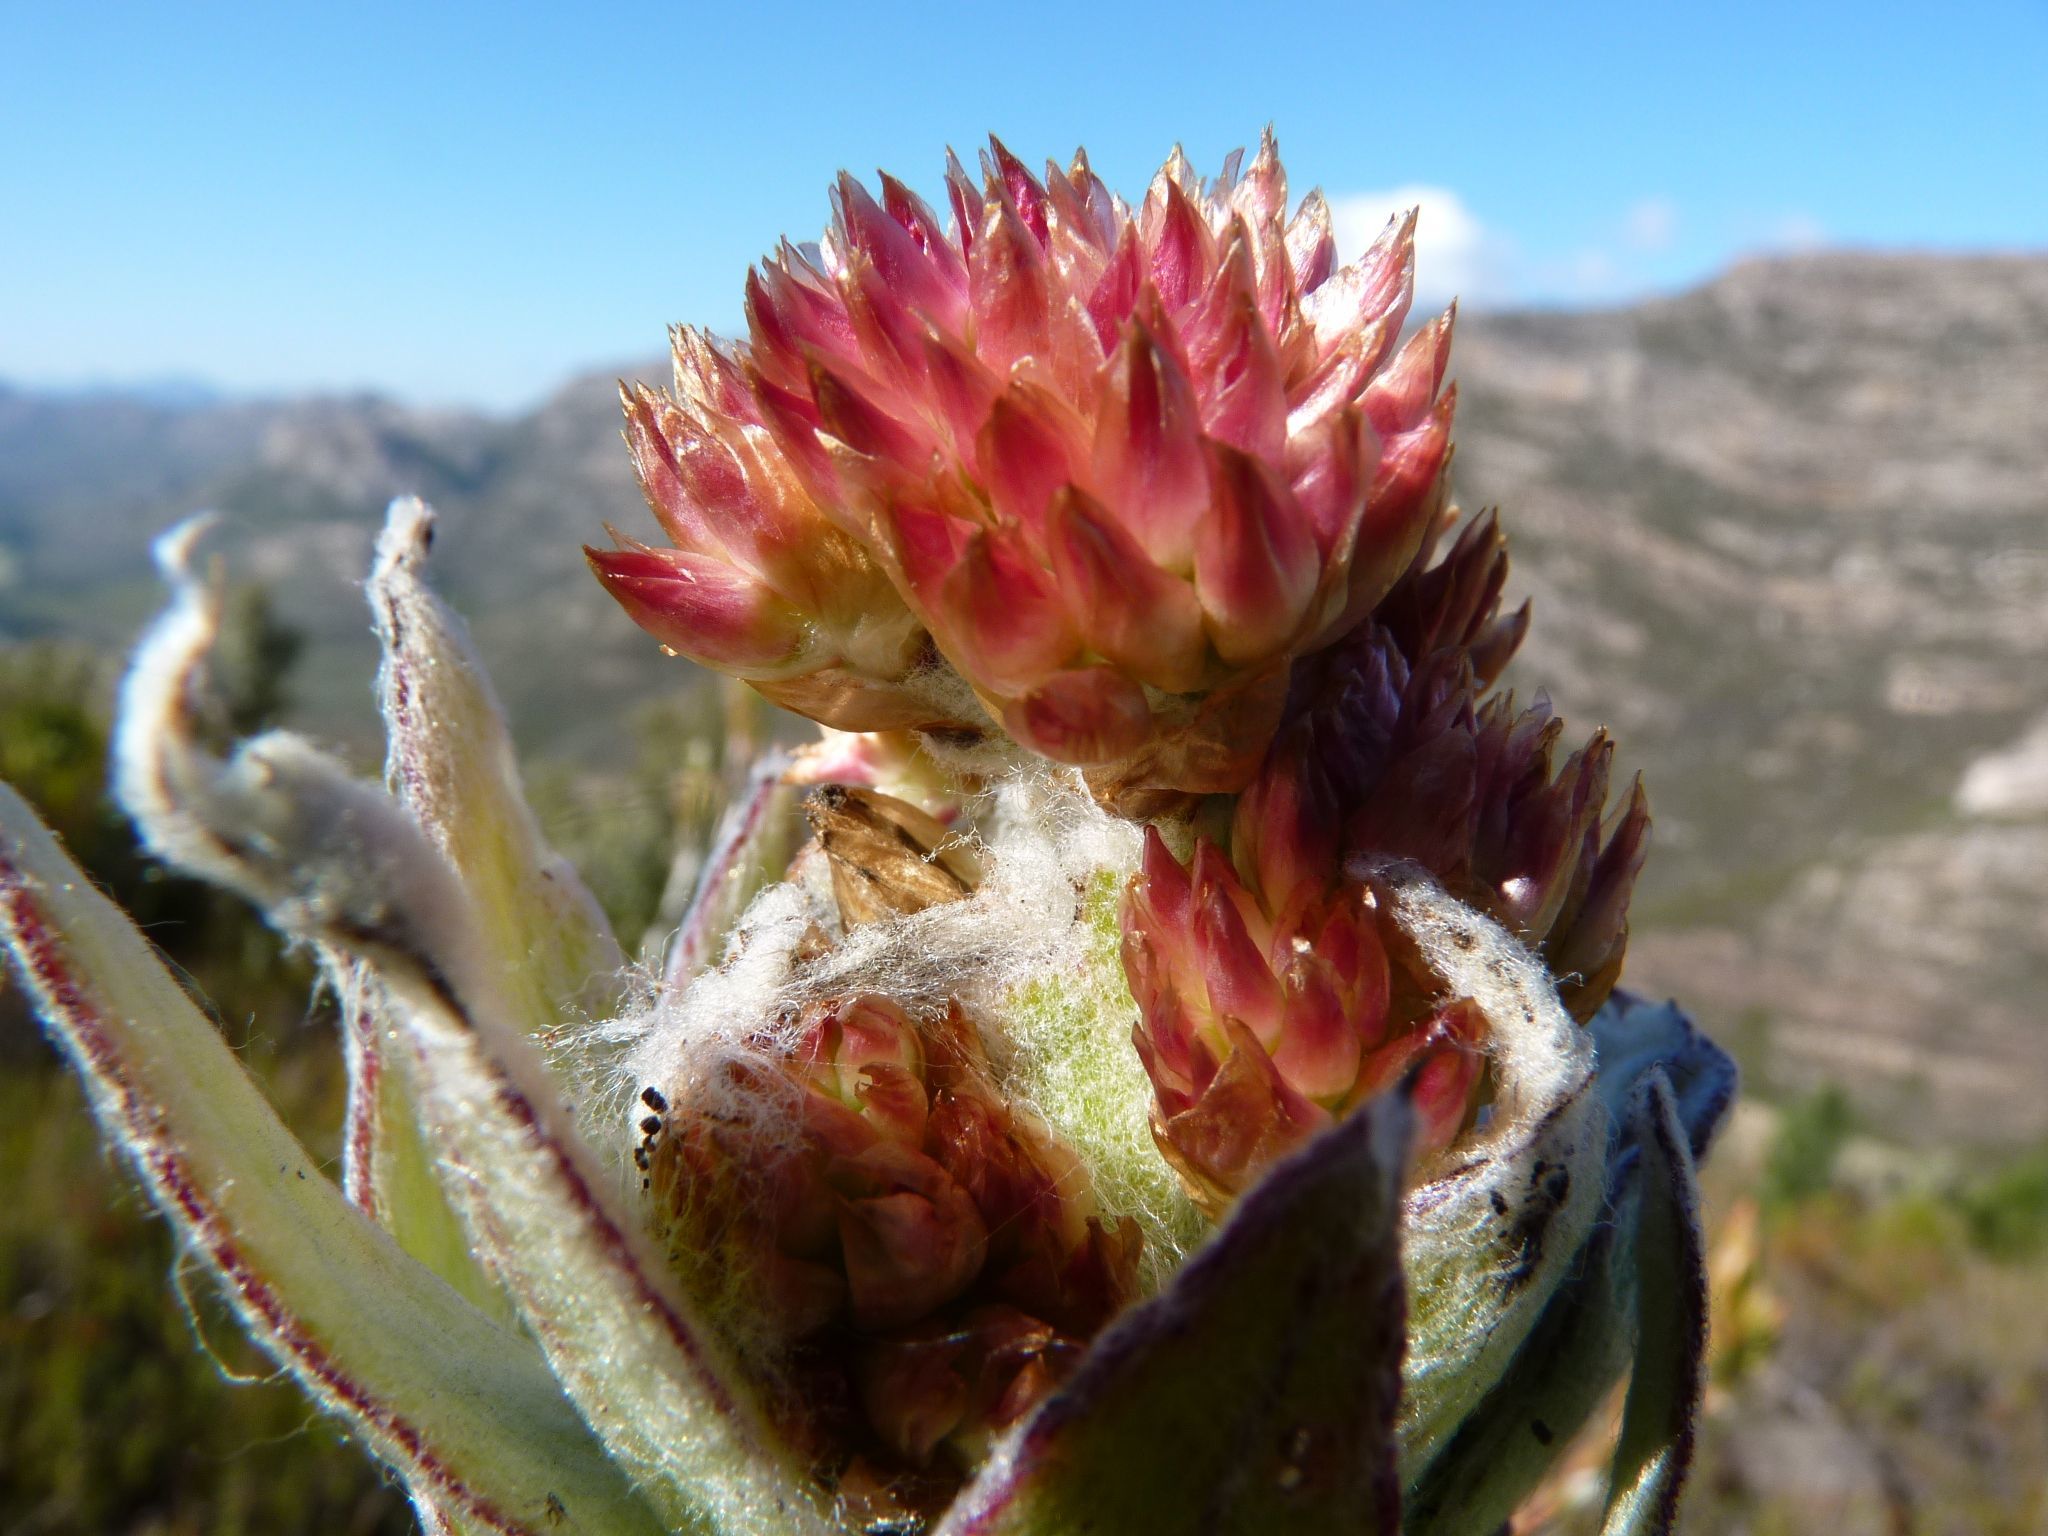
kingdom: Plantae
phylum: Tracheophyta
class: Magnoliopsida
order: Asterales
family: Asteraceae
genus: Syncarpha
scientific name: Syncarpha milleflora
